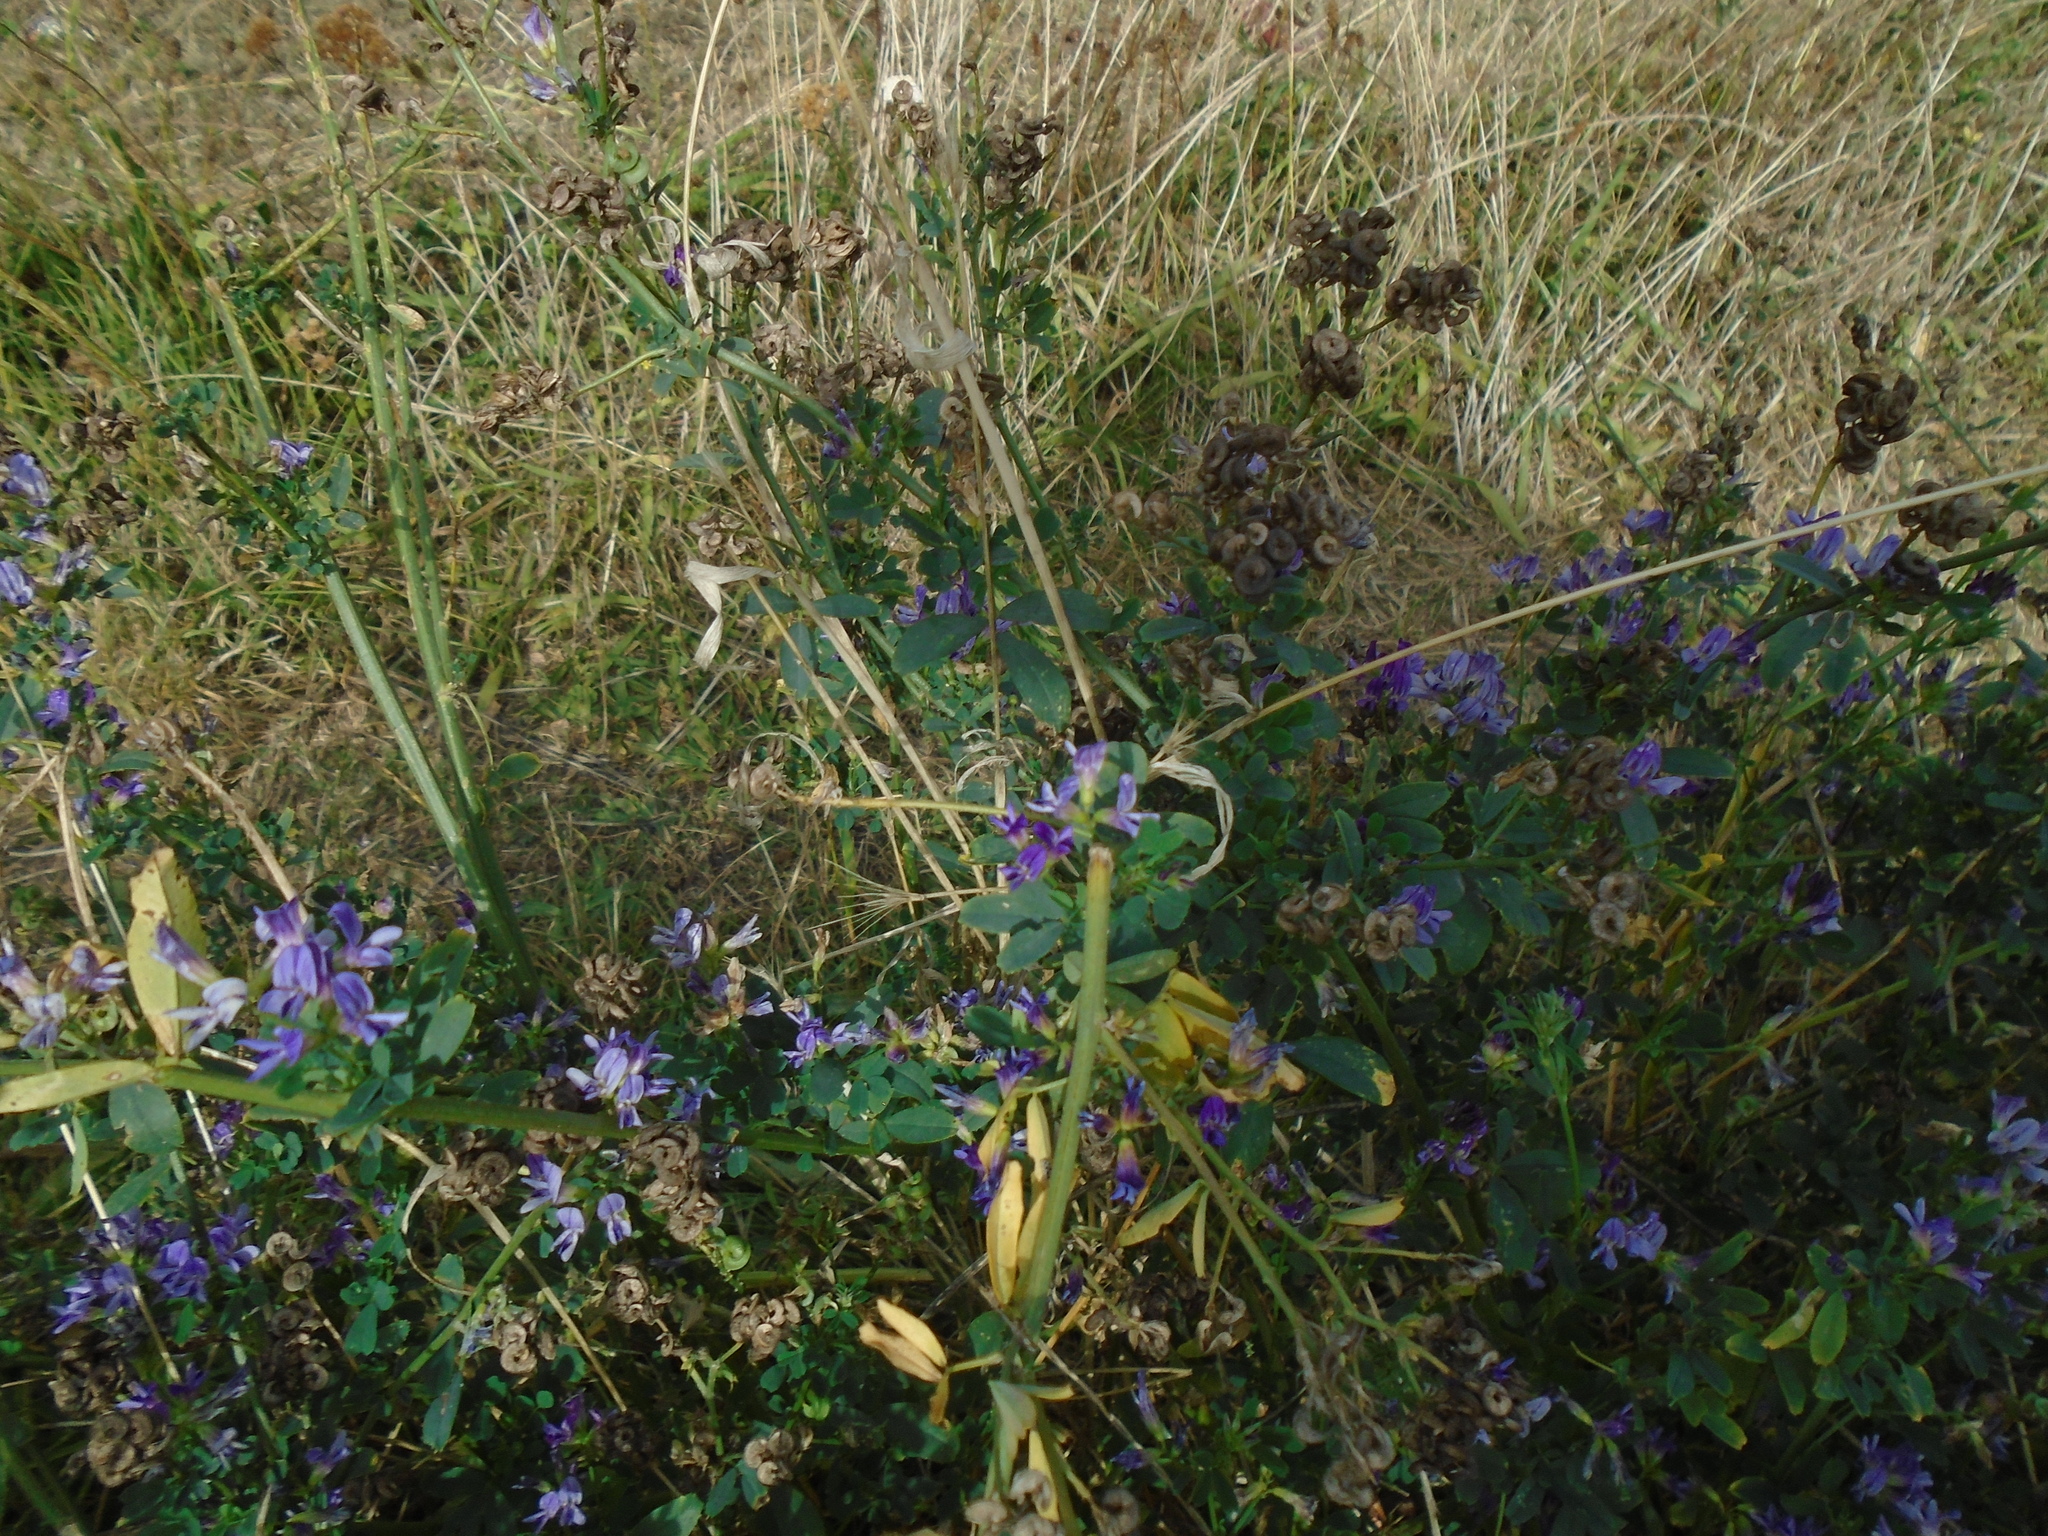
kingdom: Plantae
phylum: Tracheophyta
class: Magnoliopsida
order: Fabales
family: Fabaceae
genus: Medicago
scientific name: Medicago sativa
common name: Alfalfa
